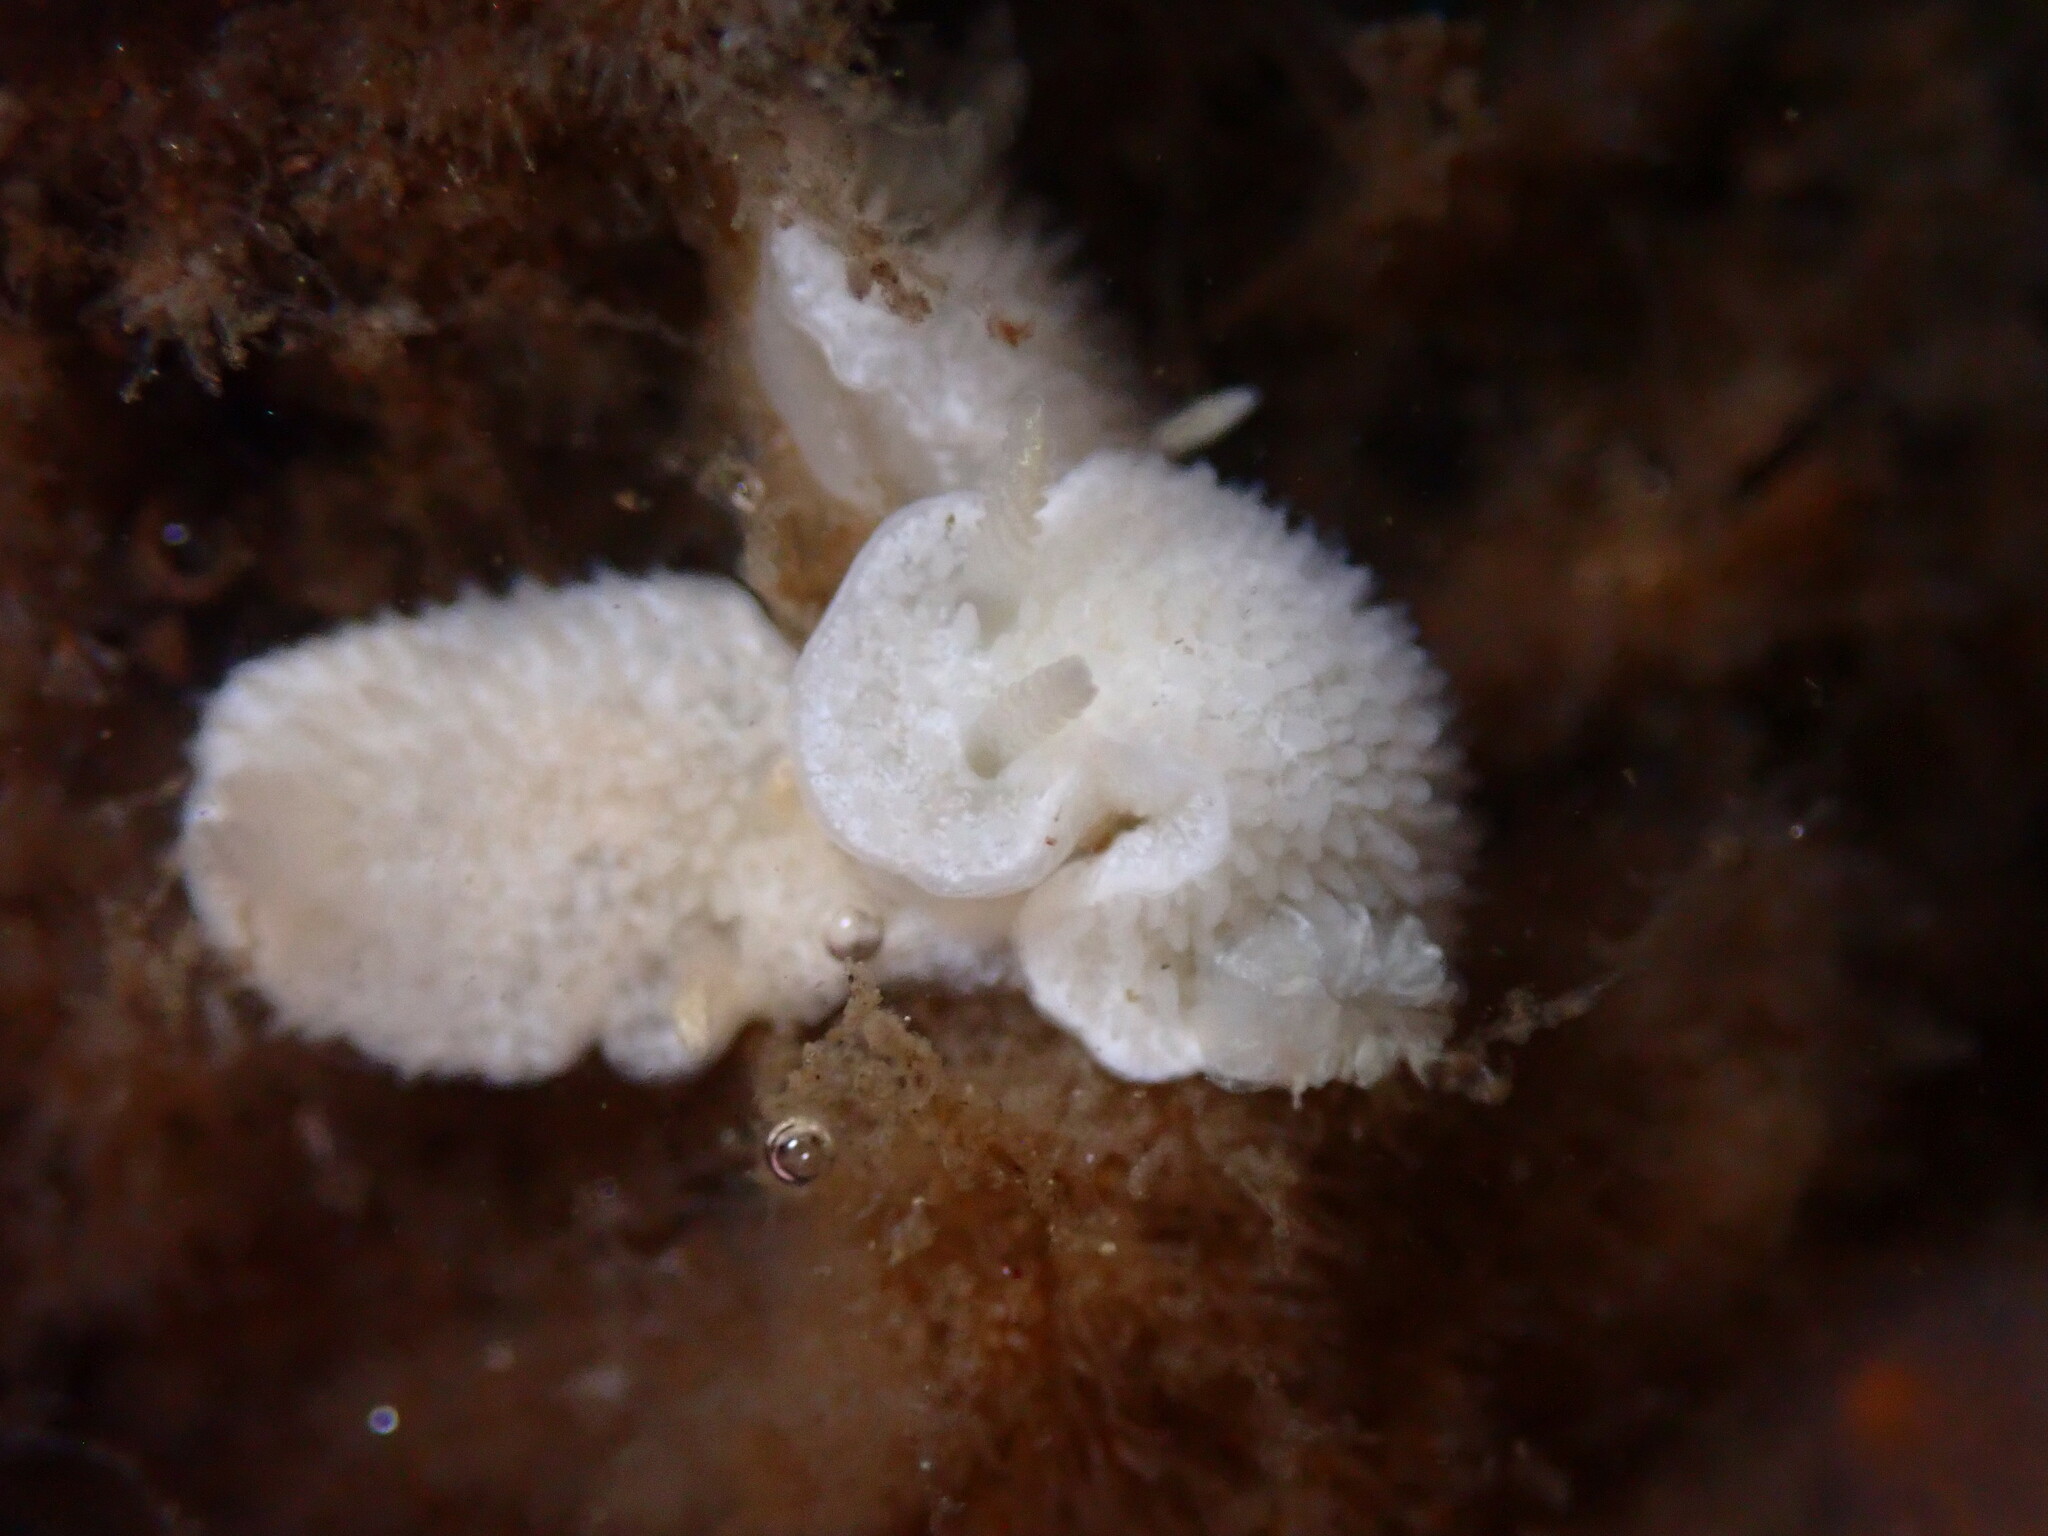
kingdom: Animalia
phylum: Mollusca
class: Gastropoda
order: Nudibranchia
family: Calycidorididae
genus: Diaphorodoris
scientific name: Diaphorodoris lirulatocauda
